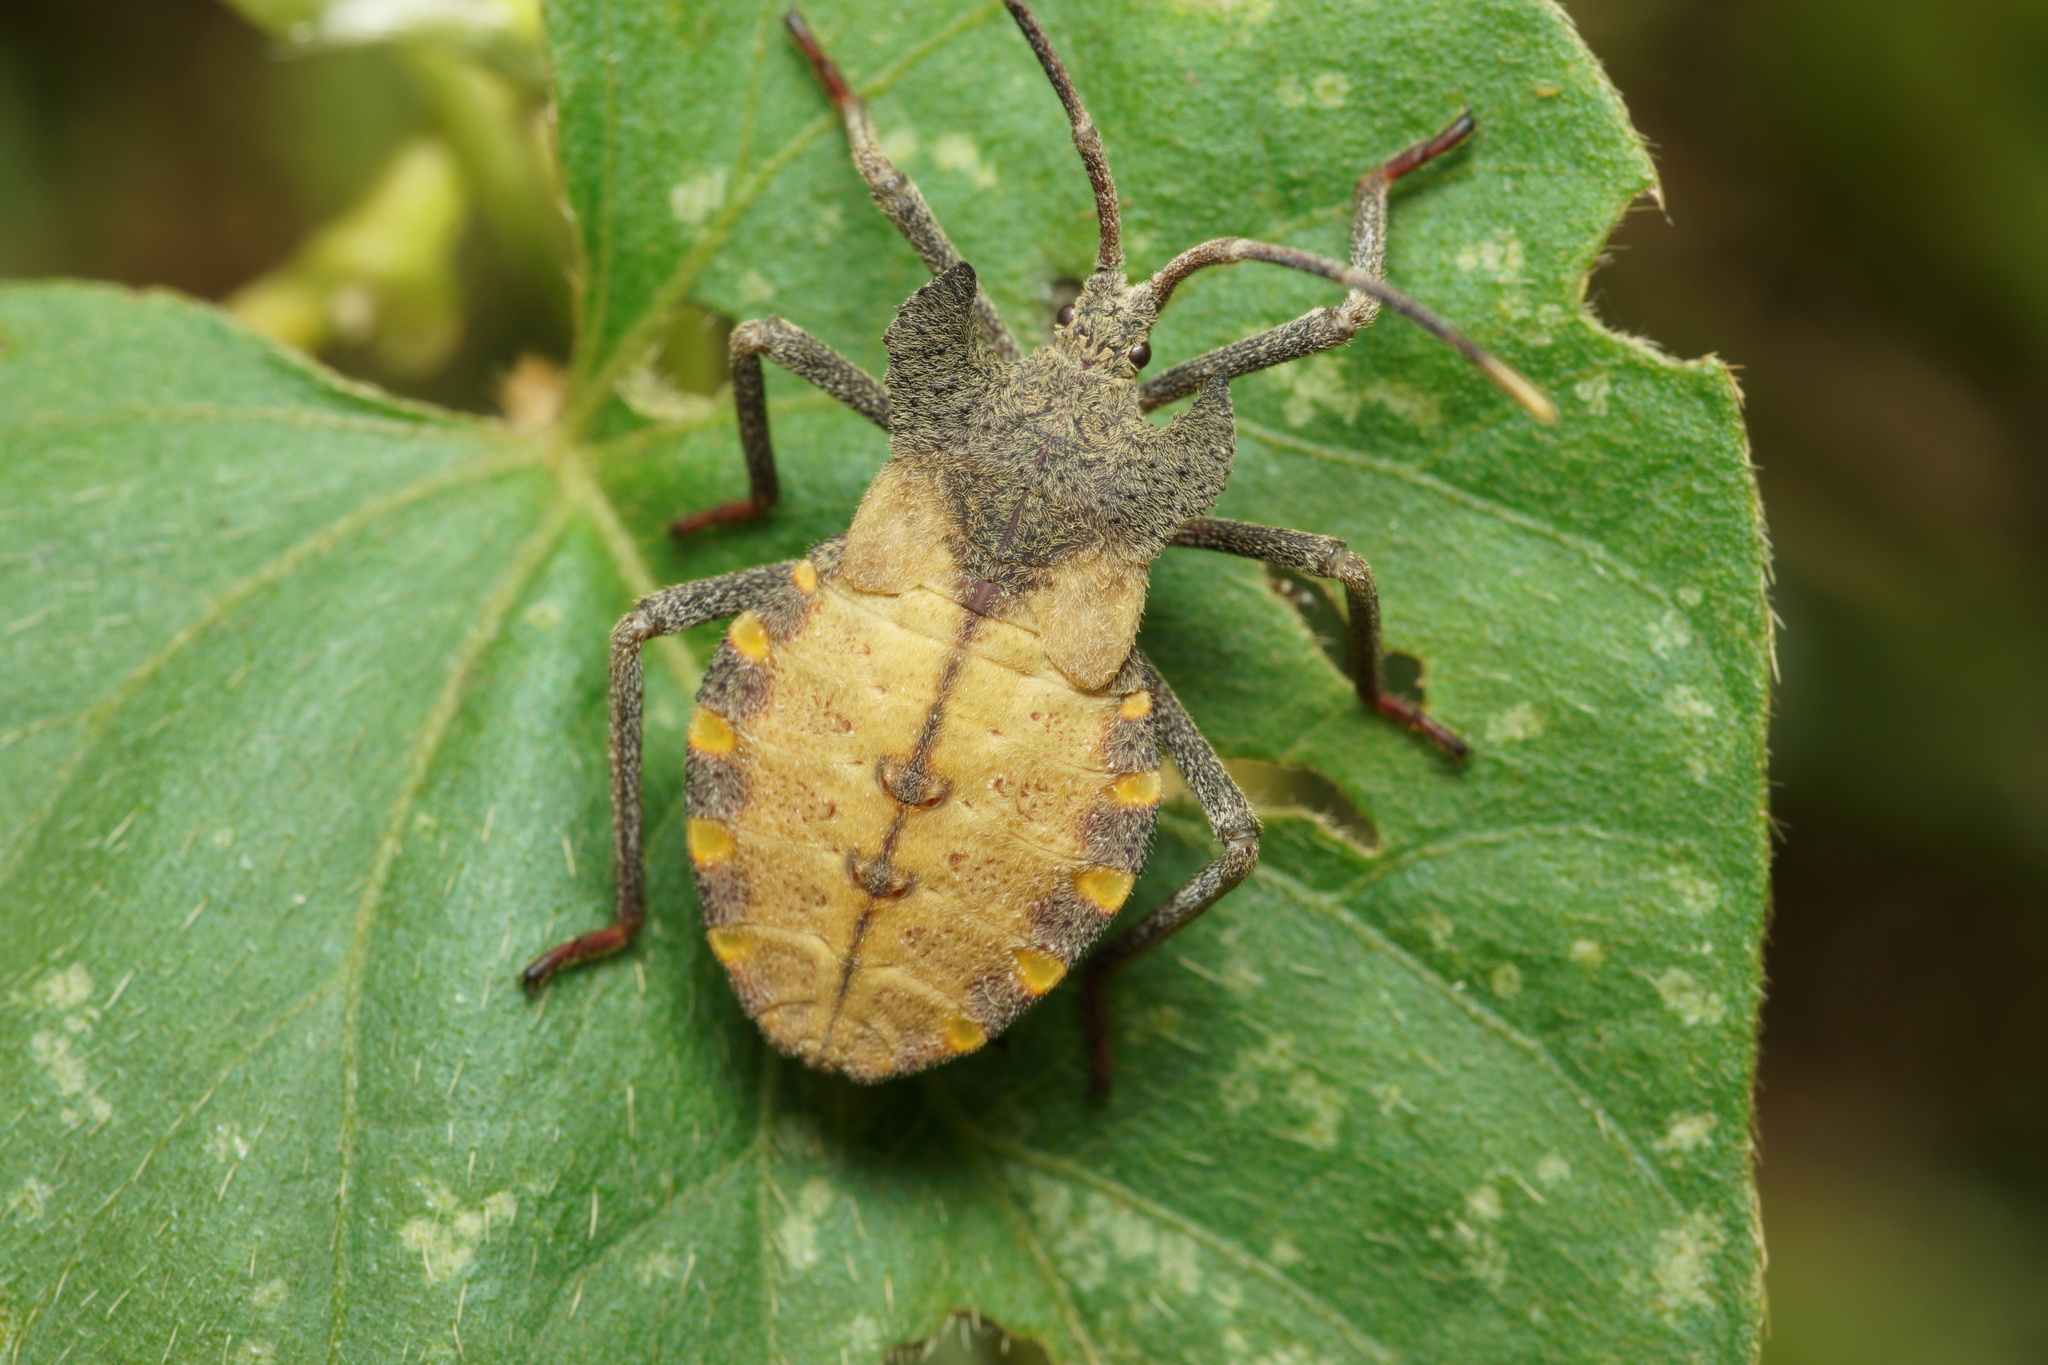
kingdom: Animalia
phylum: Arthropoda
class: Insecta
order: Hemiptera
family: Coreidae
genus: Menenotus
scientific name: Menenotus diminutus
